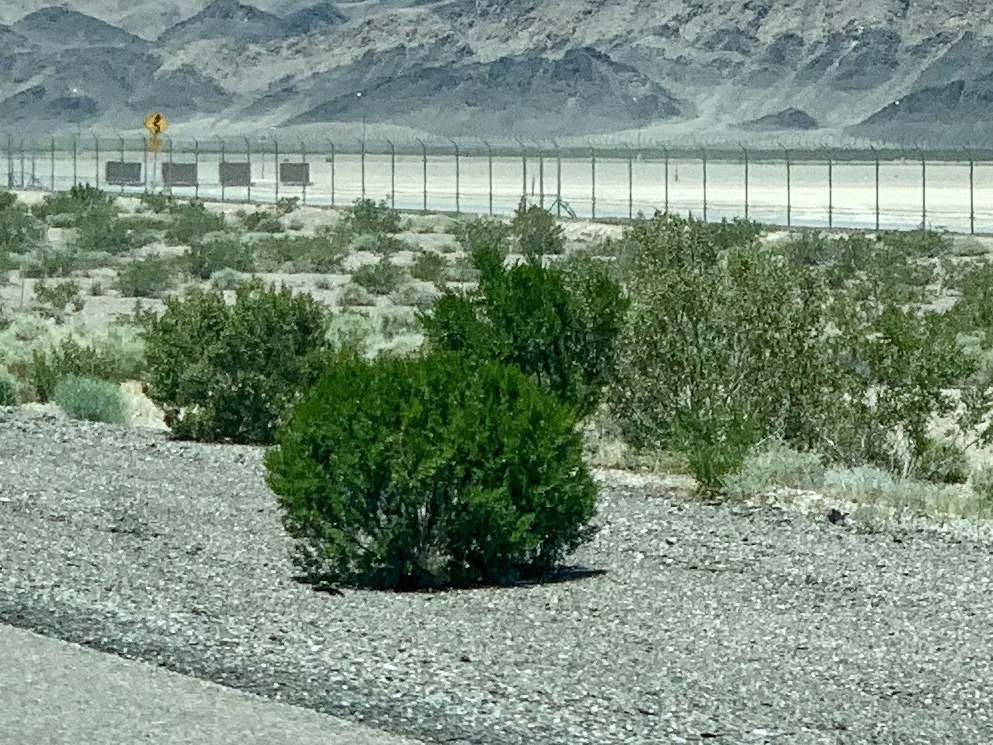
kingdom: Plantae
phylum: Tracheophyta
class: Magnoliopsida
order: Zygophyllales
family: Zygophyllaceae
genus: Larrea
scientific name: Larrea tridentata
